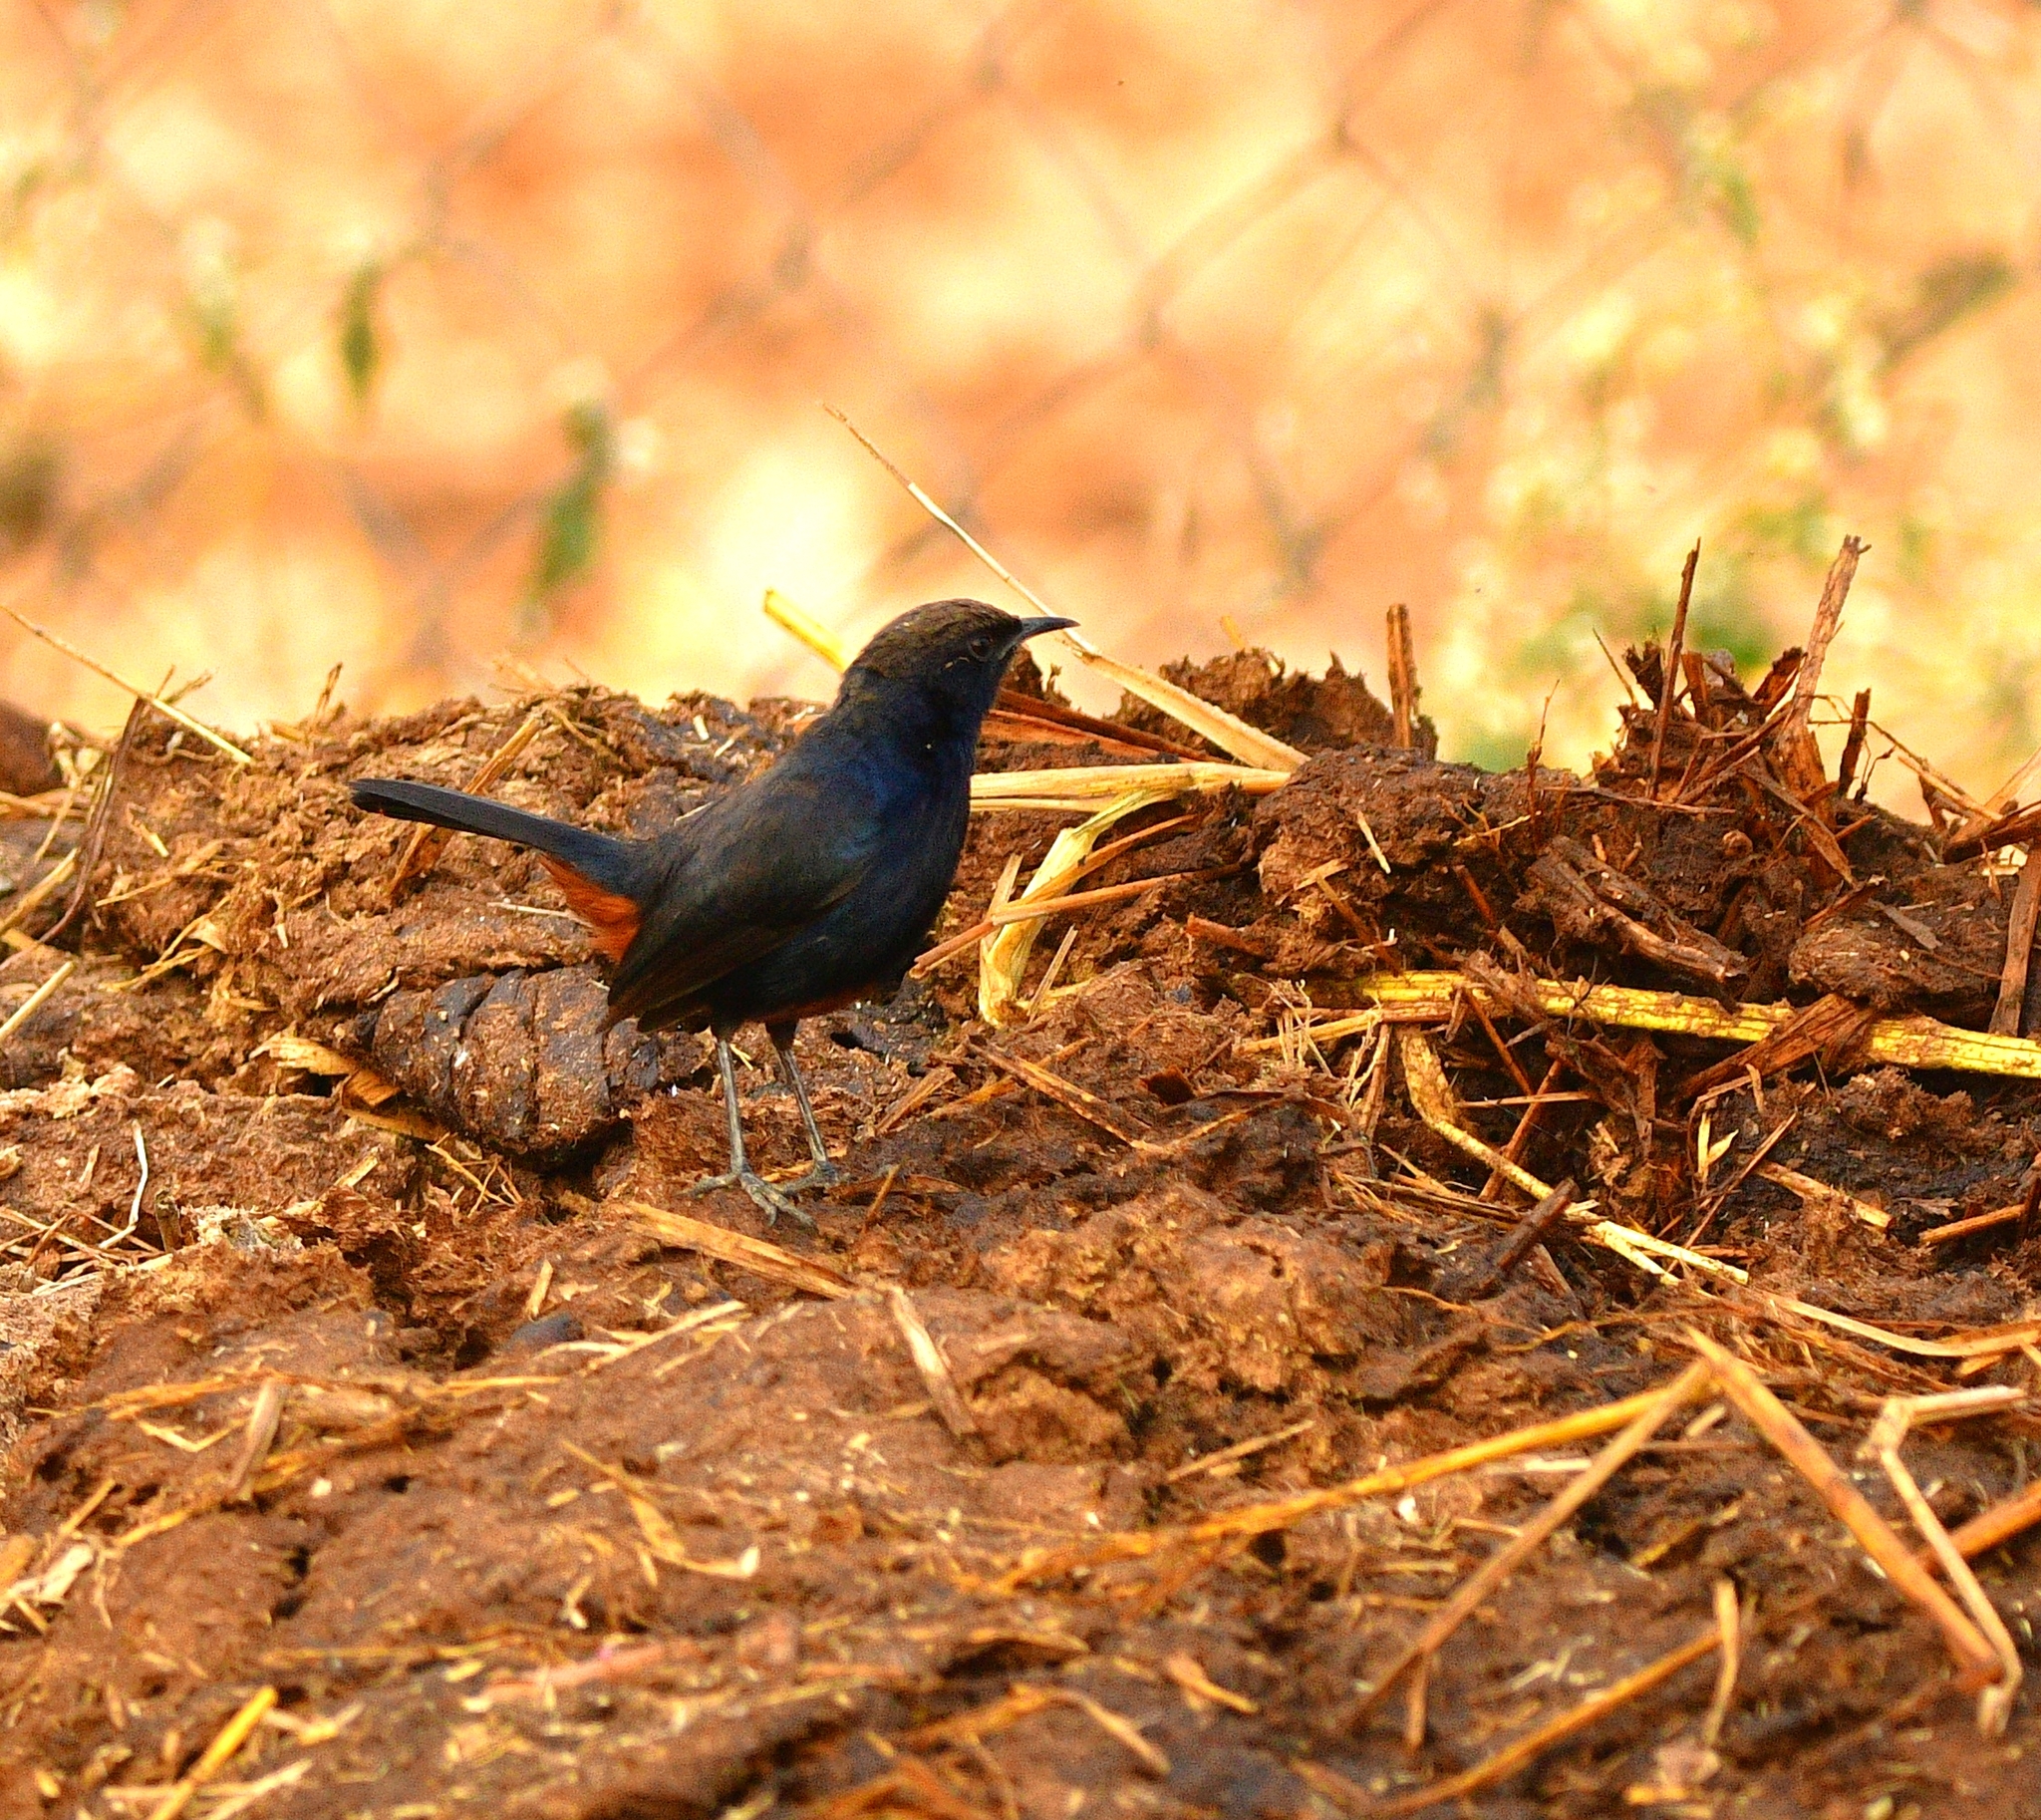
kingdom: Animalia
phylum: Chordata
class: Aves
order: Passeriformes
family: Muscicapidae
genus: Saxicoloides
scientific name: Saxicoloides fulicatus
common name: Indian robin
